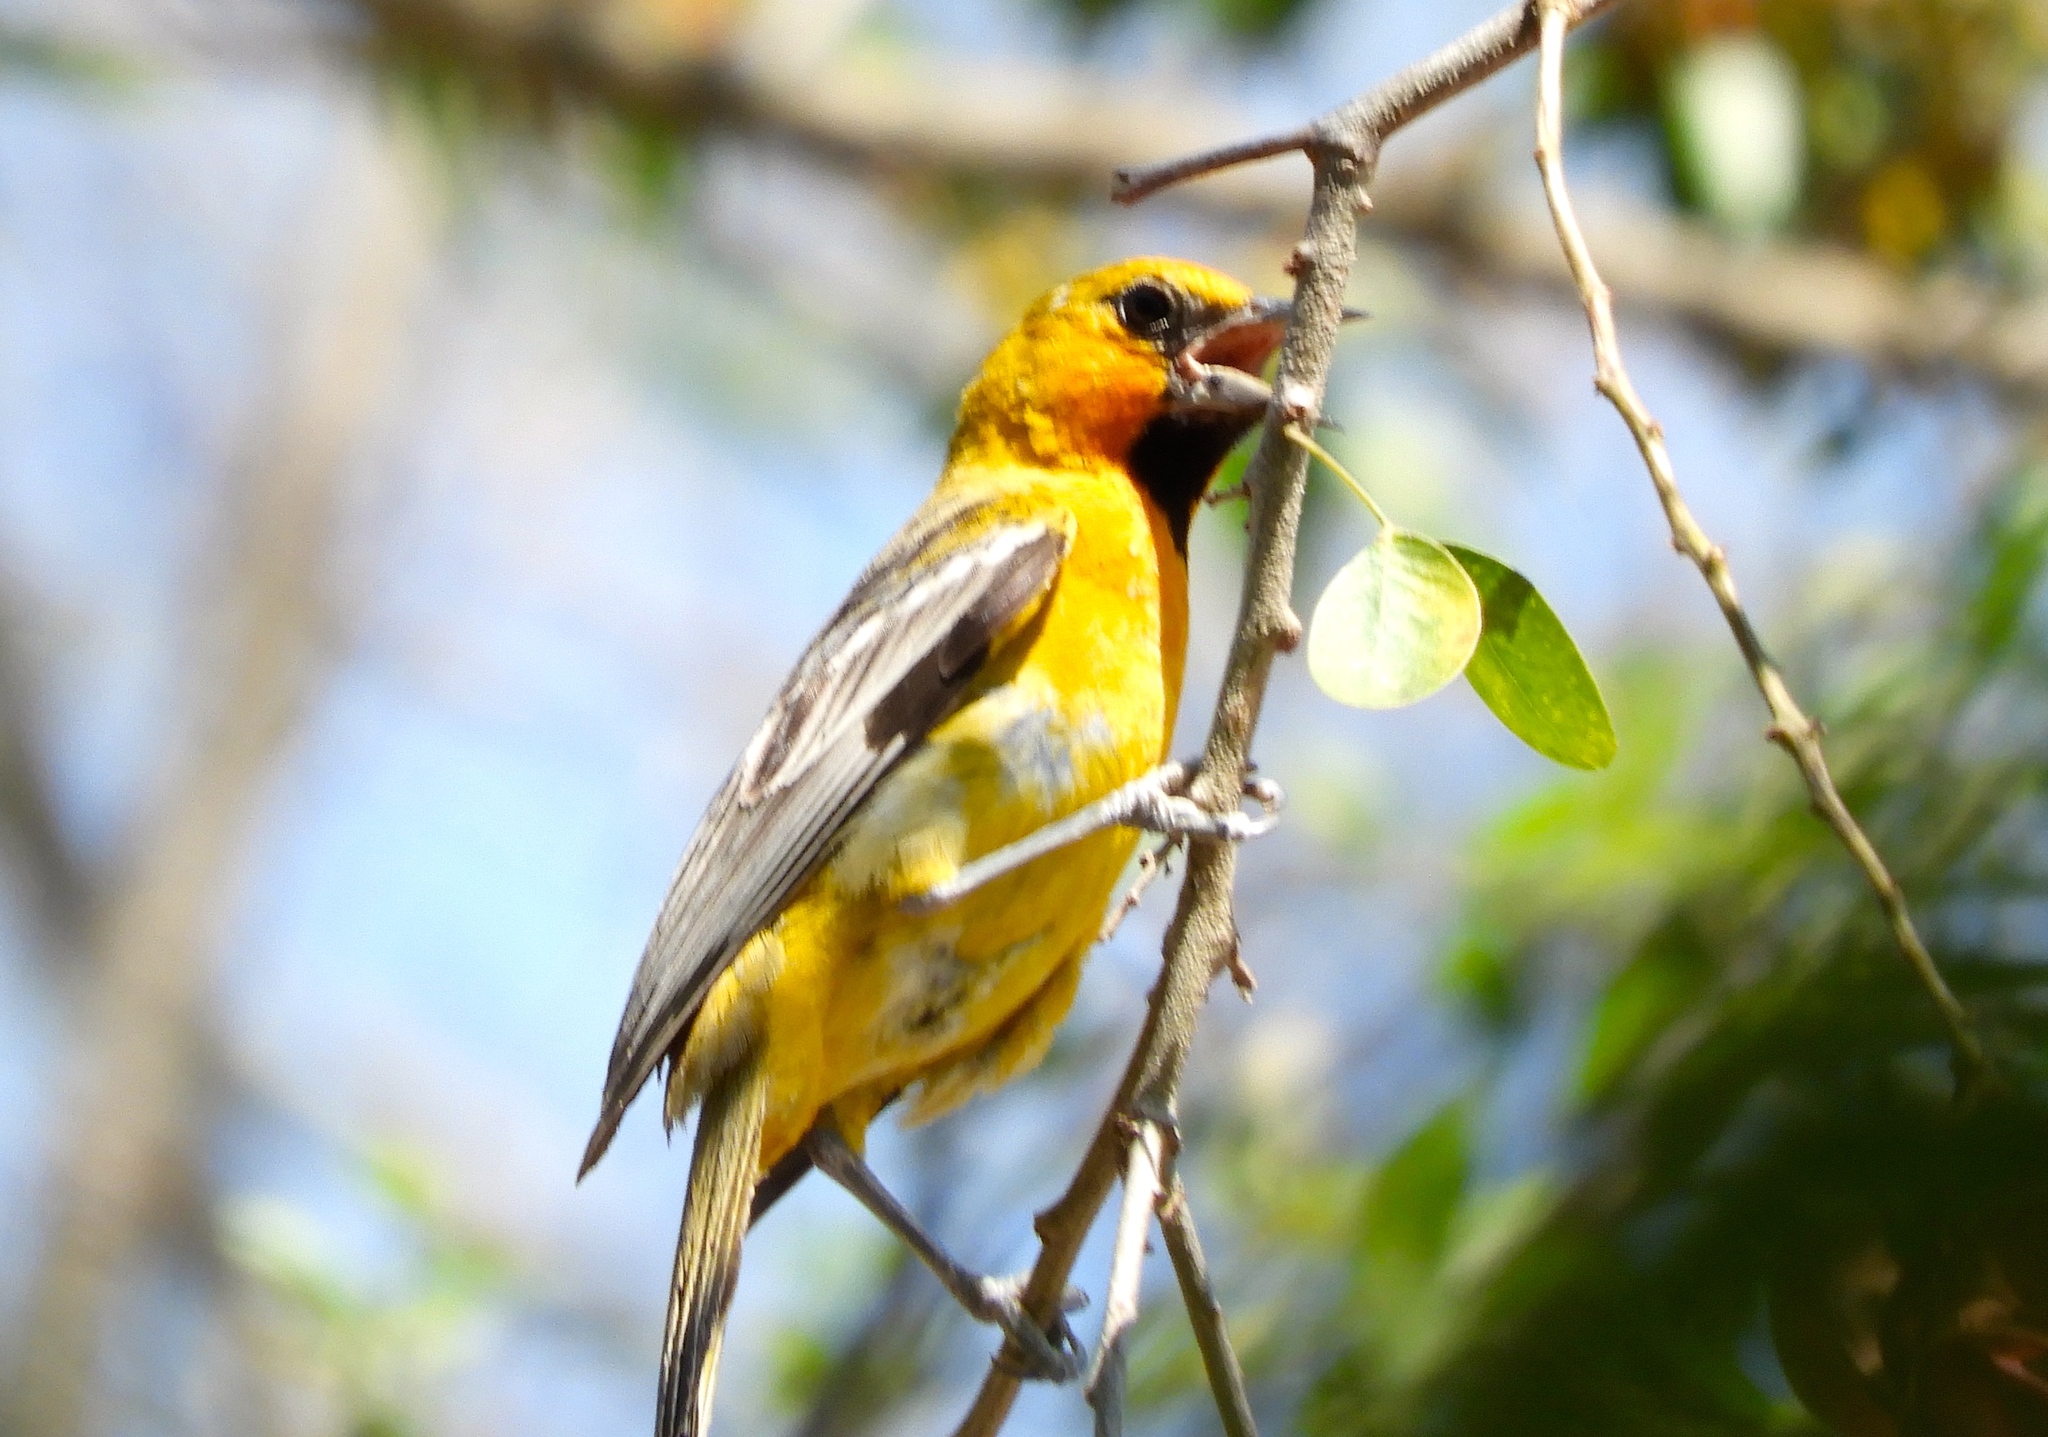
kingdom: Animalia
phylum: Chordata
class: Aves
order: Passeriformes
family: Icteridae
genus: Icterus
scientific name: Icterus pustulatus
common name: Streak-backed oriole
